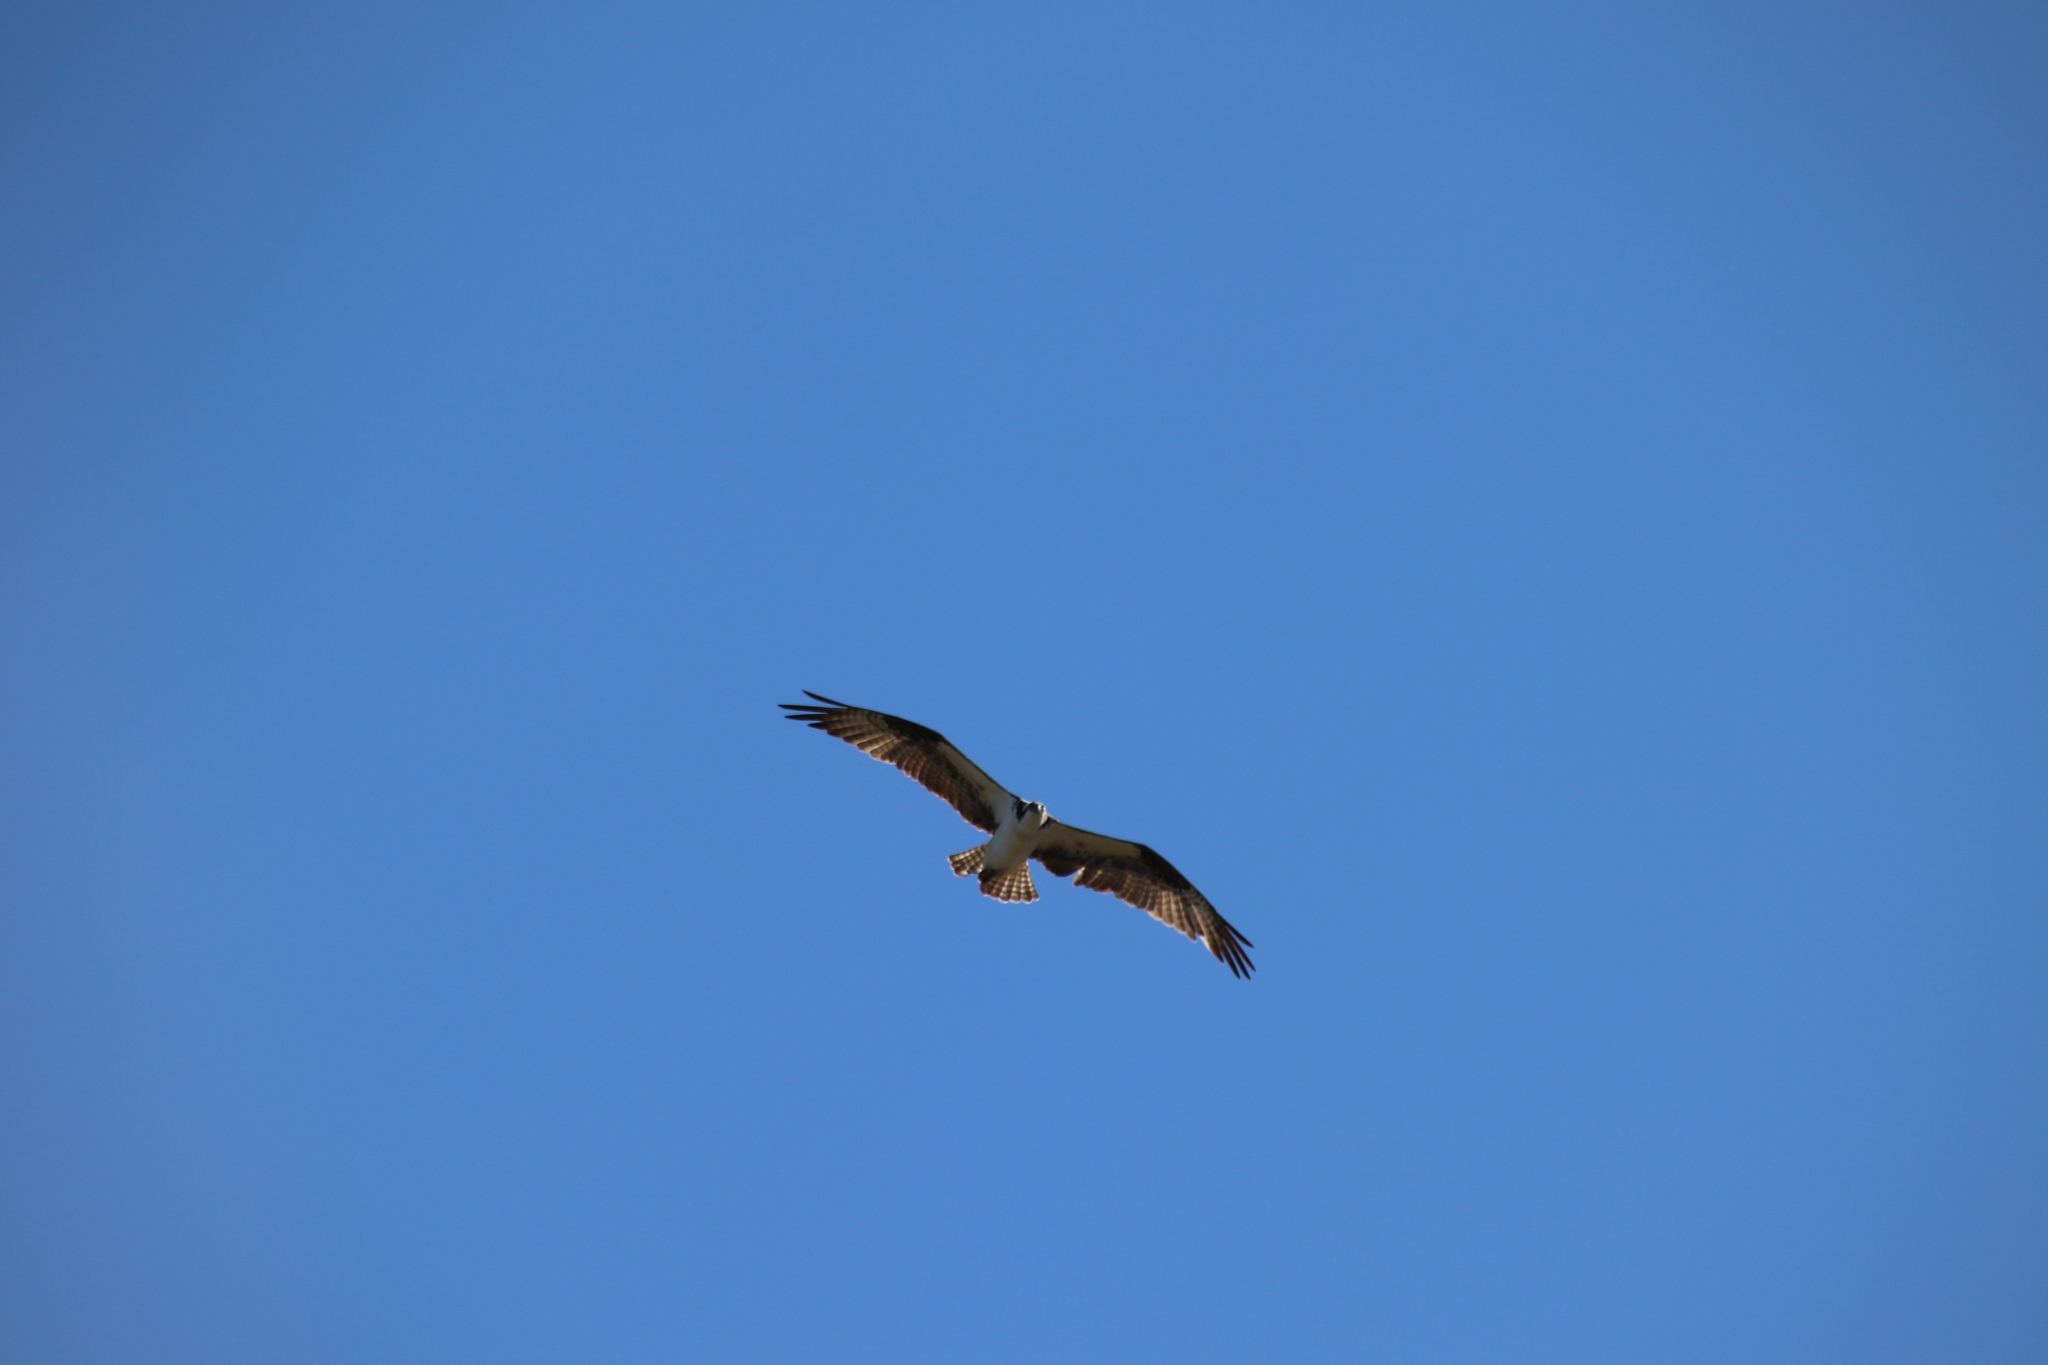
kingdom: Animalia
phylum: Chordata
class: Aves
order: Accipitriformes
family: Pandionidae
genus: Pandion
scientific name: Pandion haliaetus
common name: Osprey
